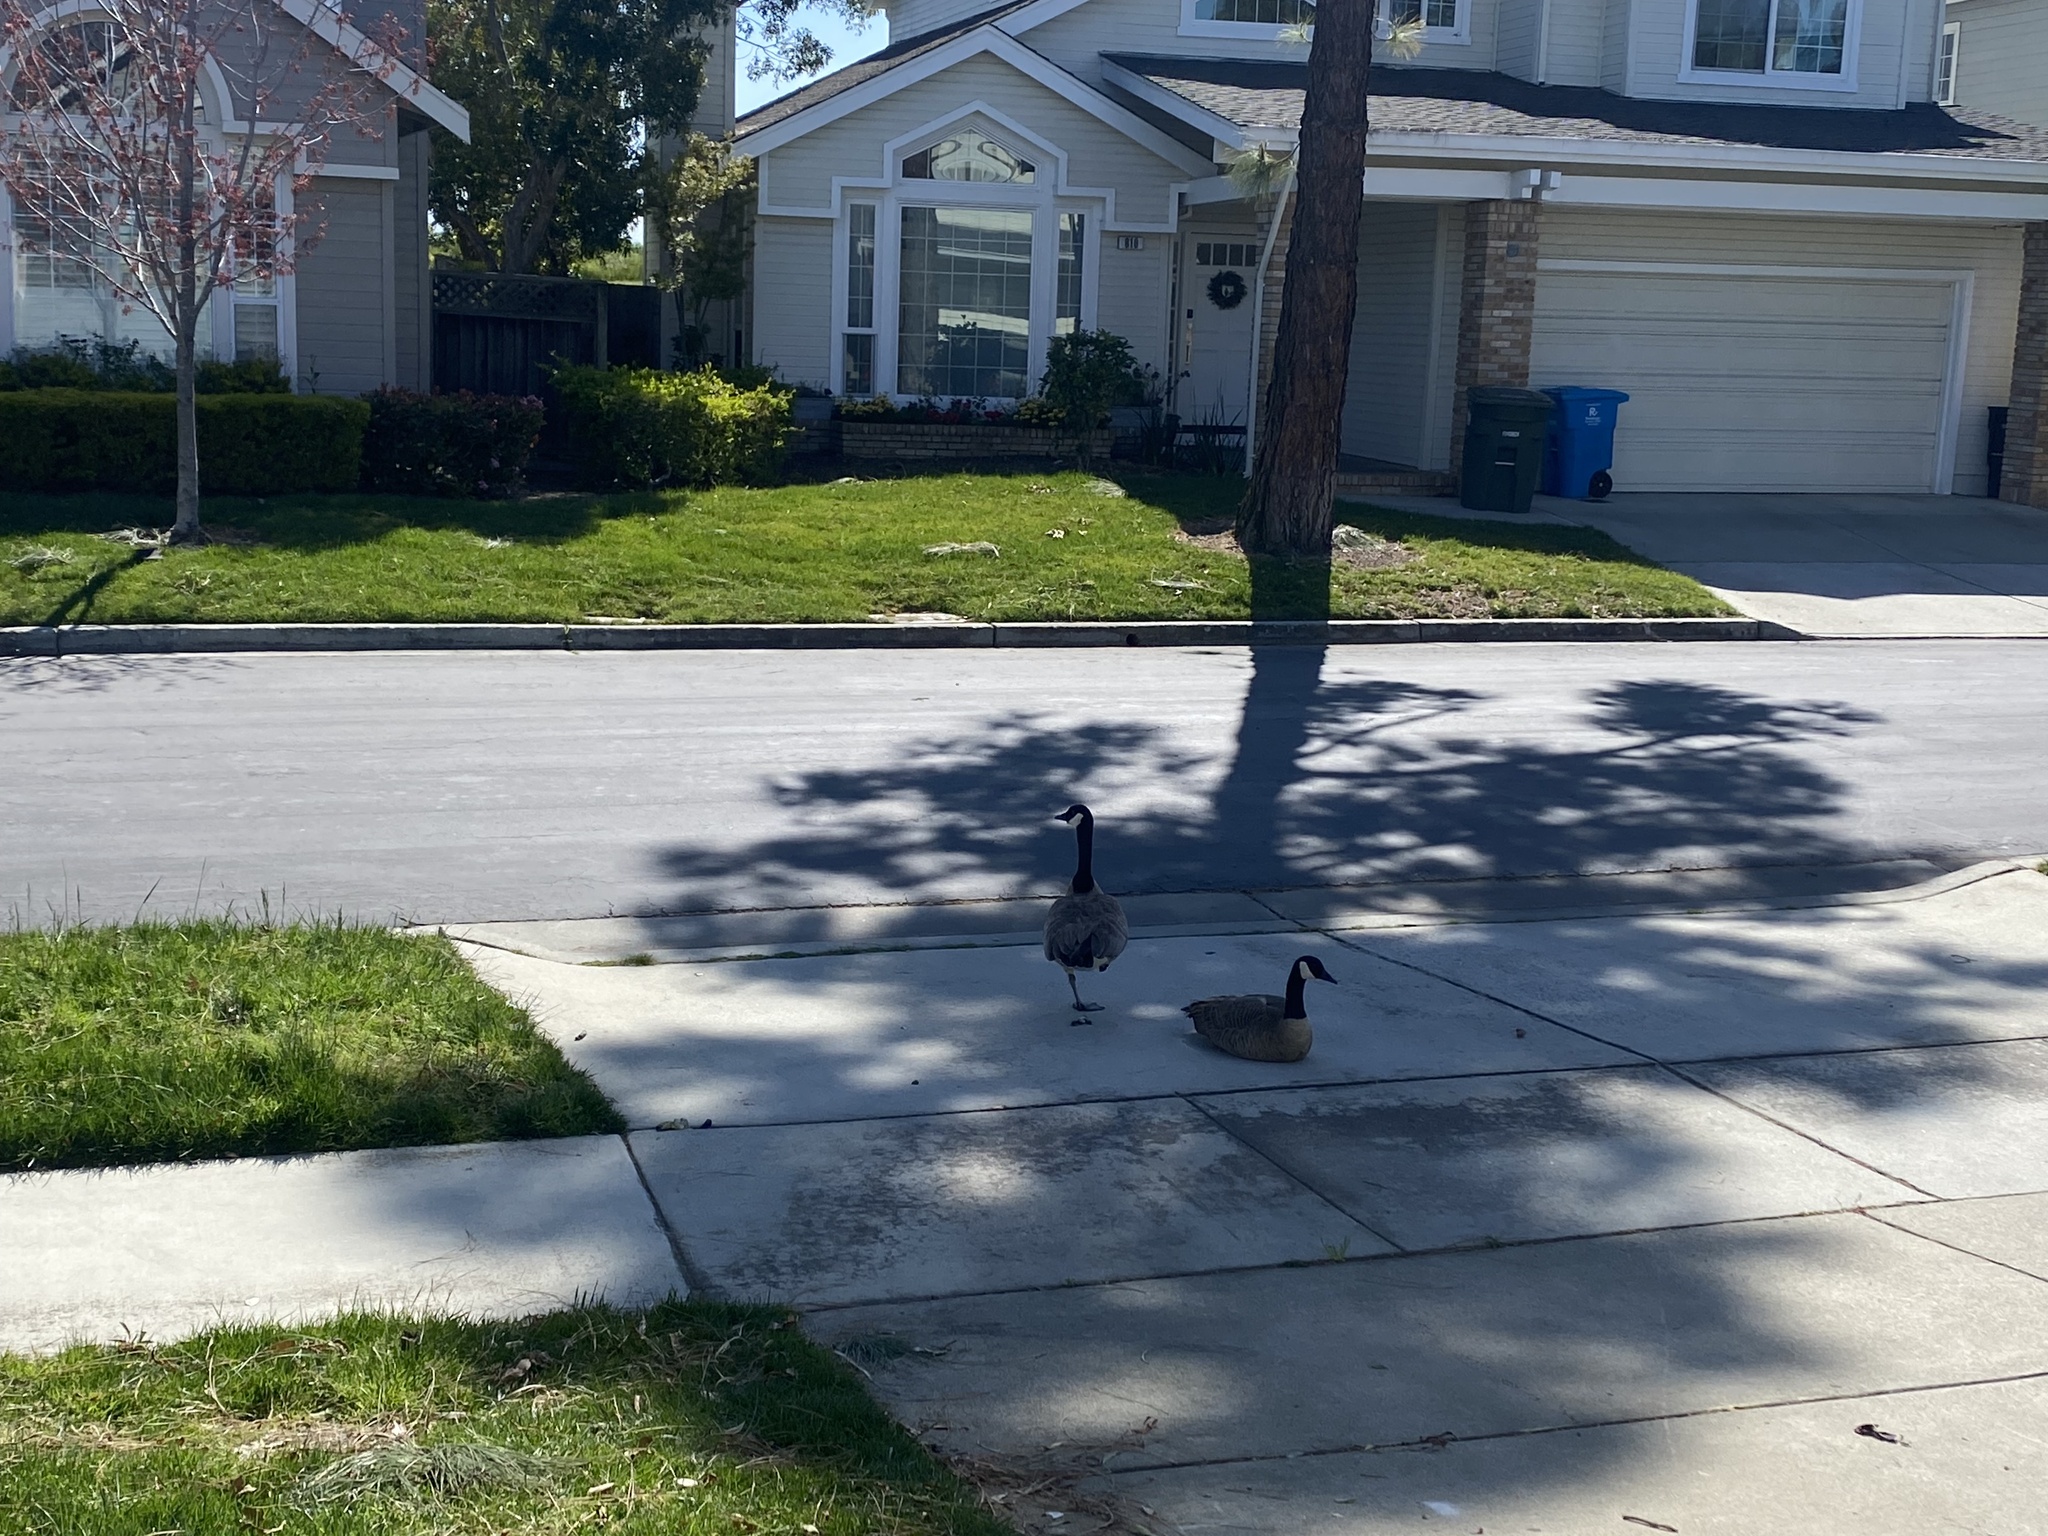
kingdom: Animalia
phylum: Chordata
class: Aves
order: Anseriformes
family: Anatidae
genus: Branta
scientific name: Branta canadensis
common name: Canada goose
